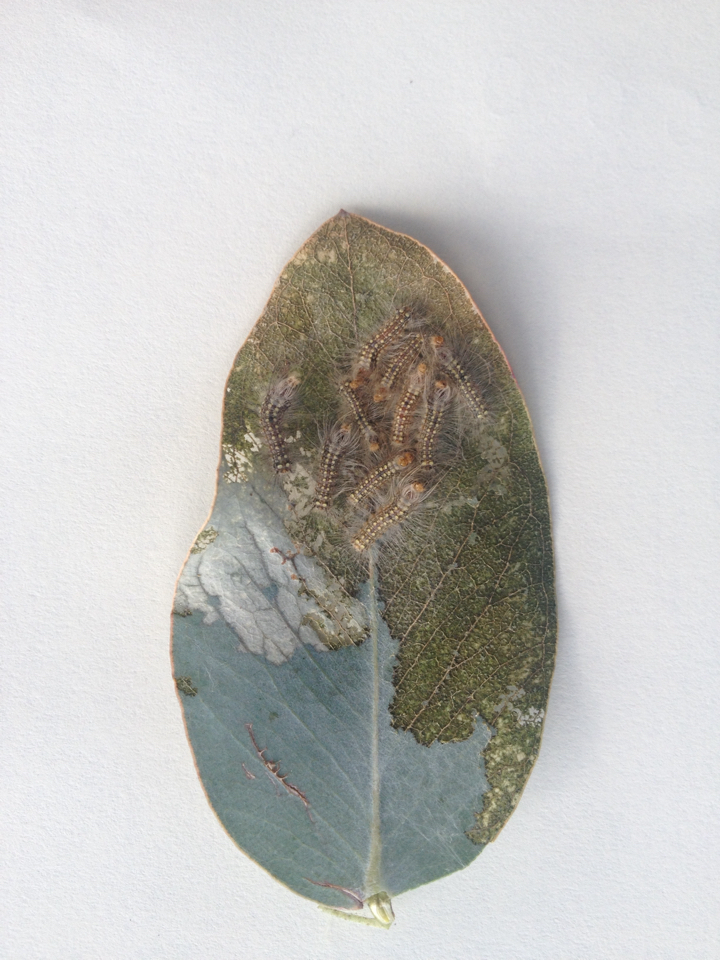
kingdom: Animalia
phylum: Arthropoda
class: Insecta
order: Lepidoptera
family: Nolidae
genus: Uraba
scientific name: Uraba lugens
